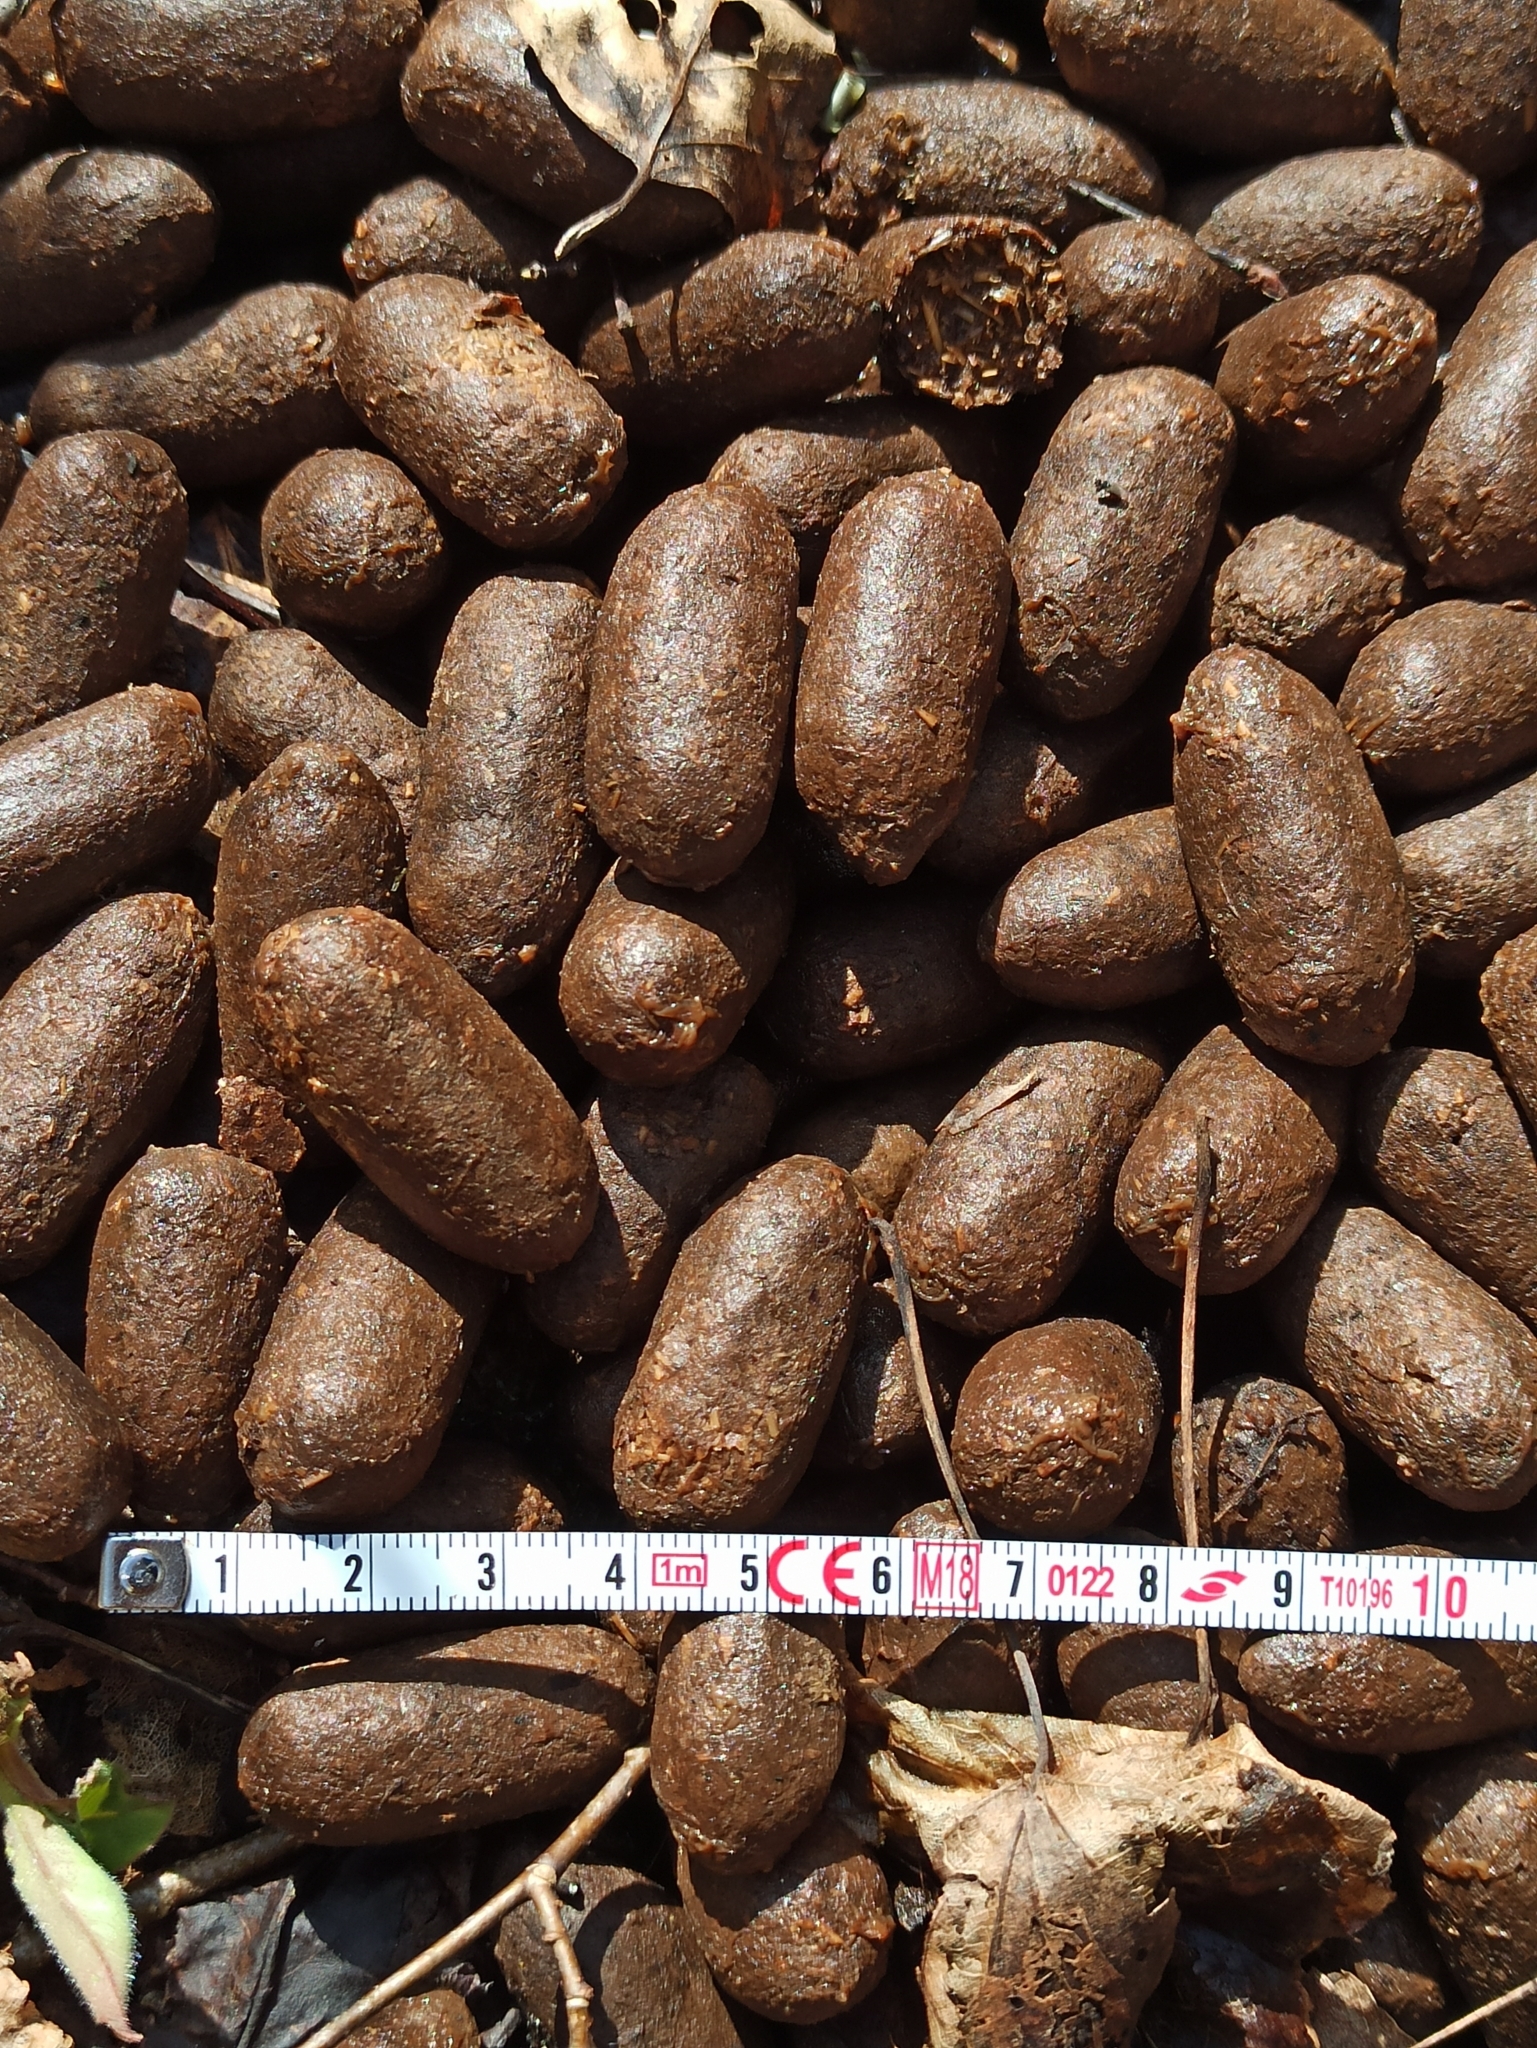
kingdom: Animalia
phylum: Chordata
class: Mammalia
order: Artiodactyla
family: Cervidae
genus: Alces
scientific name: Alces alces
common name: Moose
